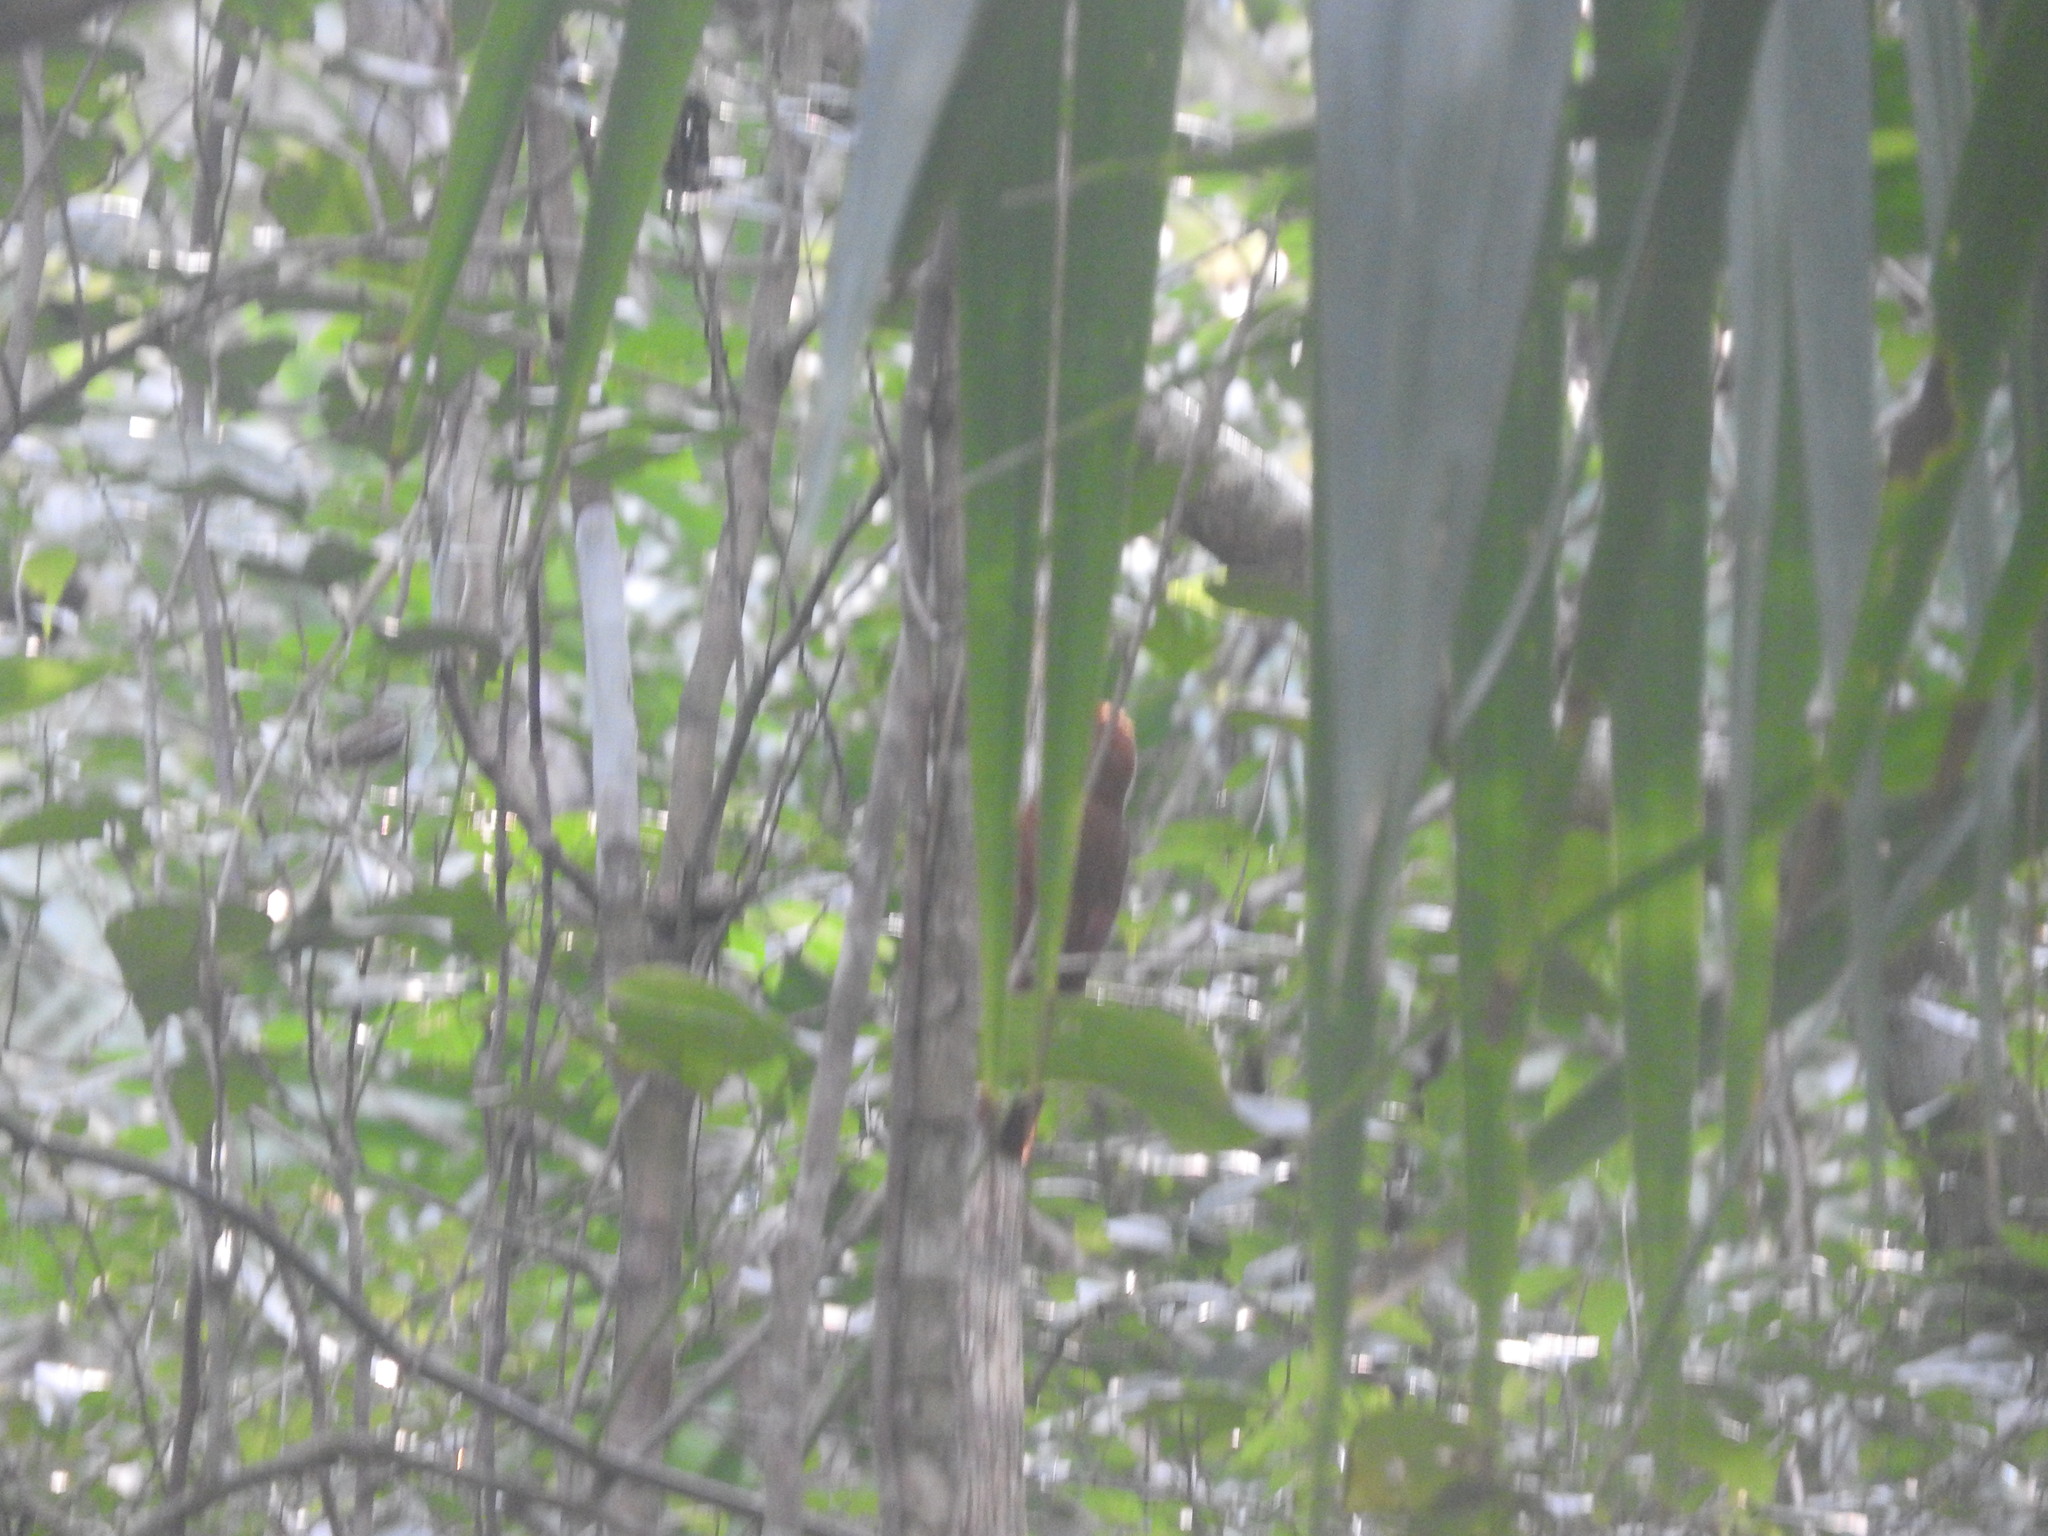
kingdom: Animalia
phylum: Chordata
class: Aves
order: Passeriformes
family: Furnariidae
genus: Dendrocincla
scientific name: Dendrocincla homochroa
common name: Ruddy woodcreeper
